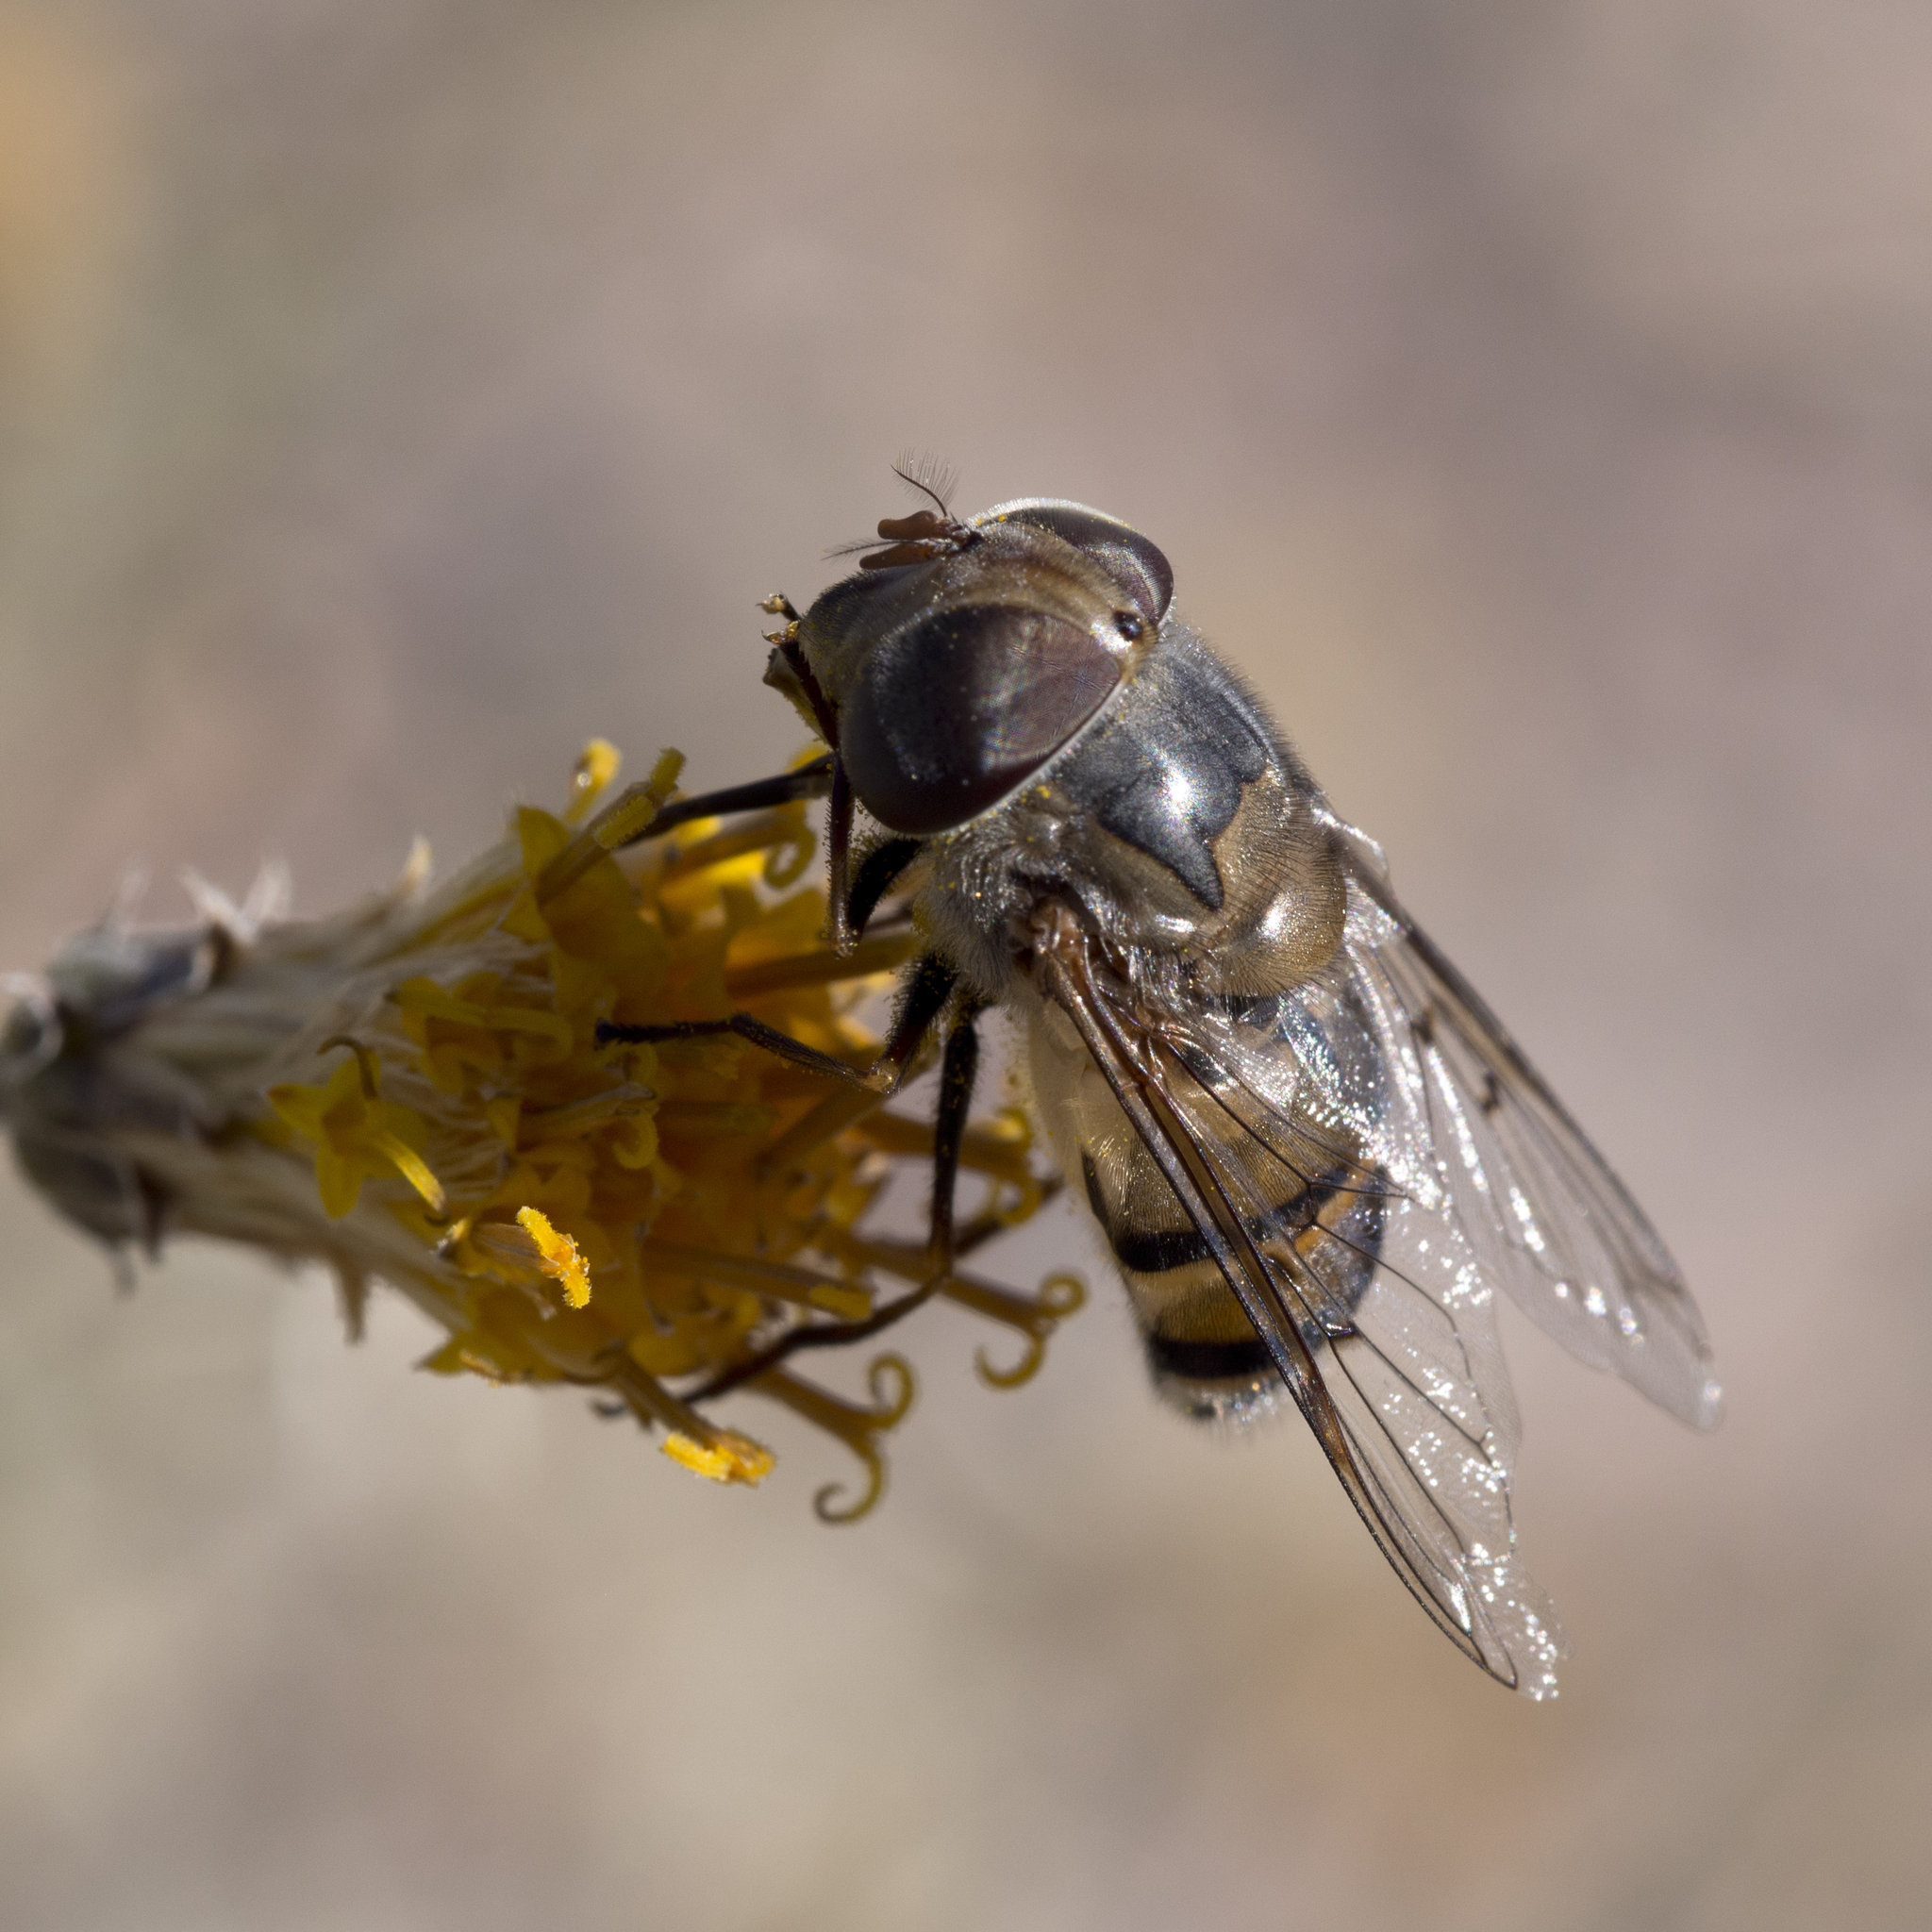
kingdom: Animalia
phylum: Arthropoda
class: Insecta
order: Diptera
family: Syrphidae
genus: Copestylum
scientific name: Copestylum isabellina
